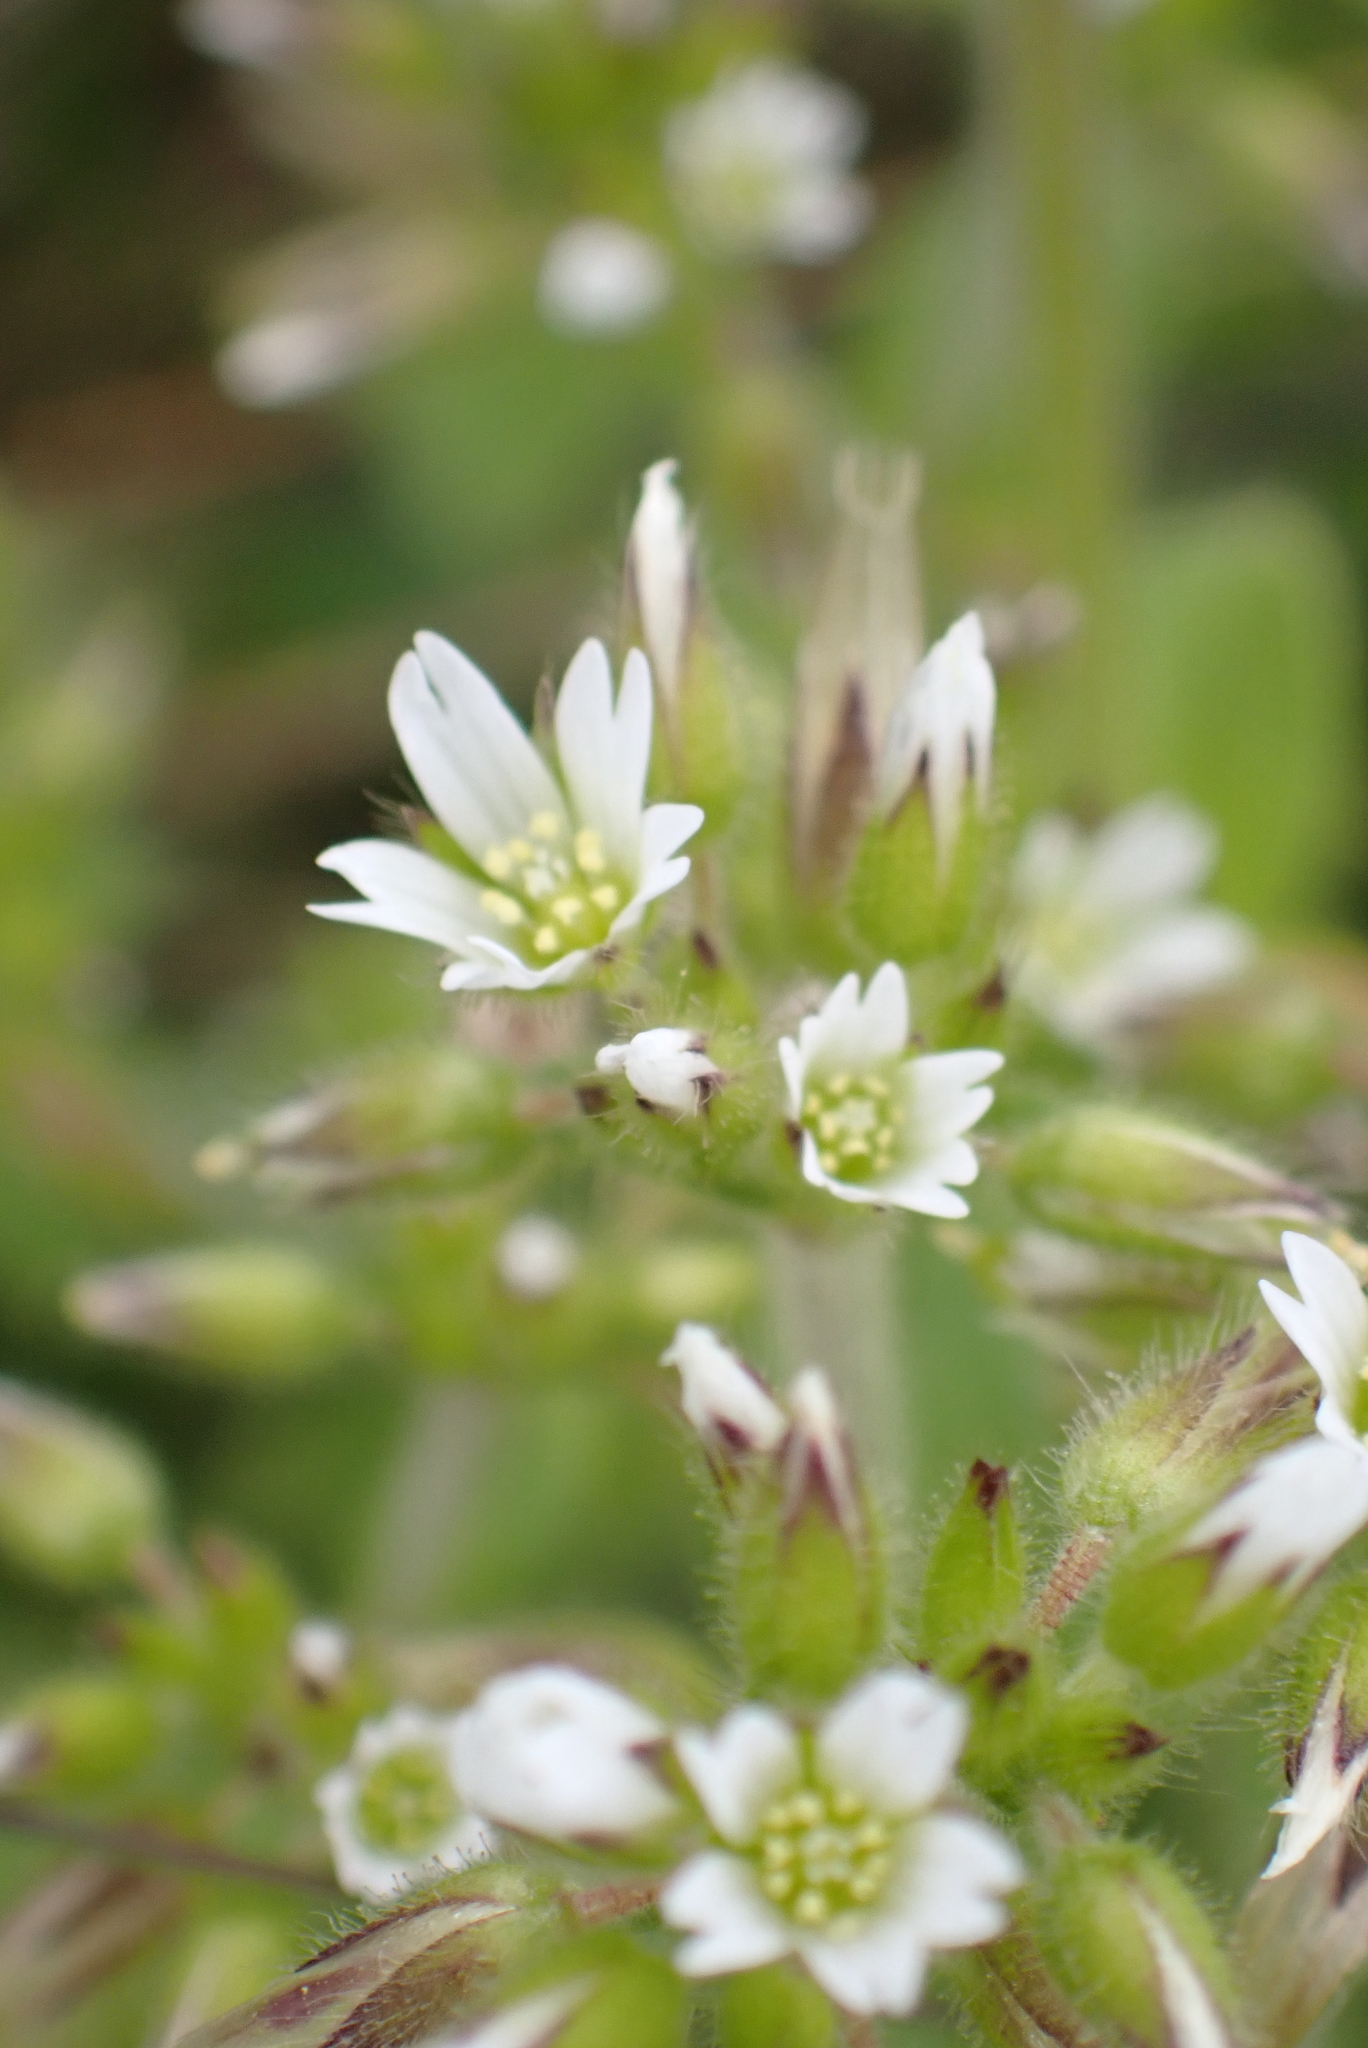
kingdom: Plantae
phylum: Tracheophyta
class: Magnoliopsida
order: Caryophyllales
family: Caryophyllaceae
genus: Cerastium
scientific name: Cerastium glomeratum
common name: Sticky chickweed
